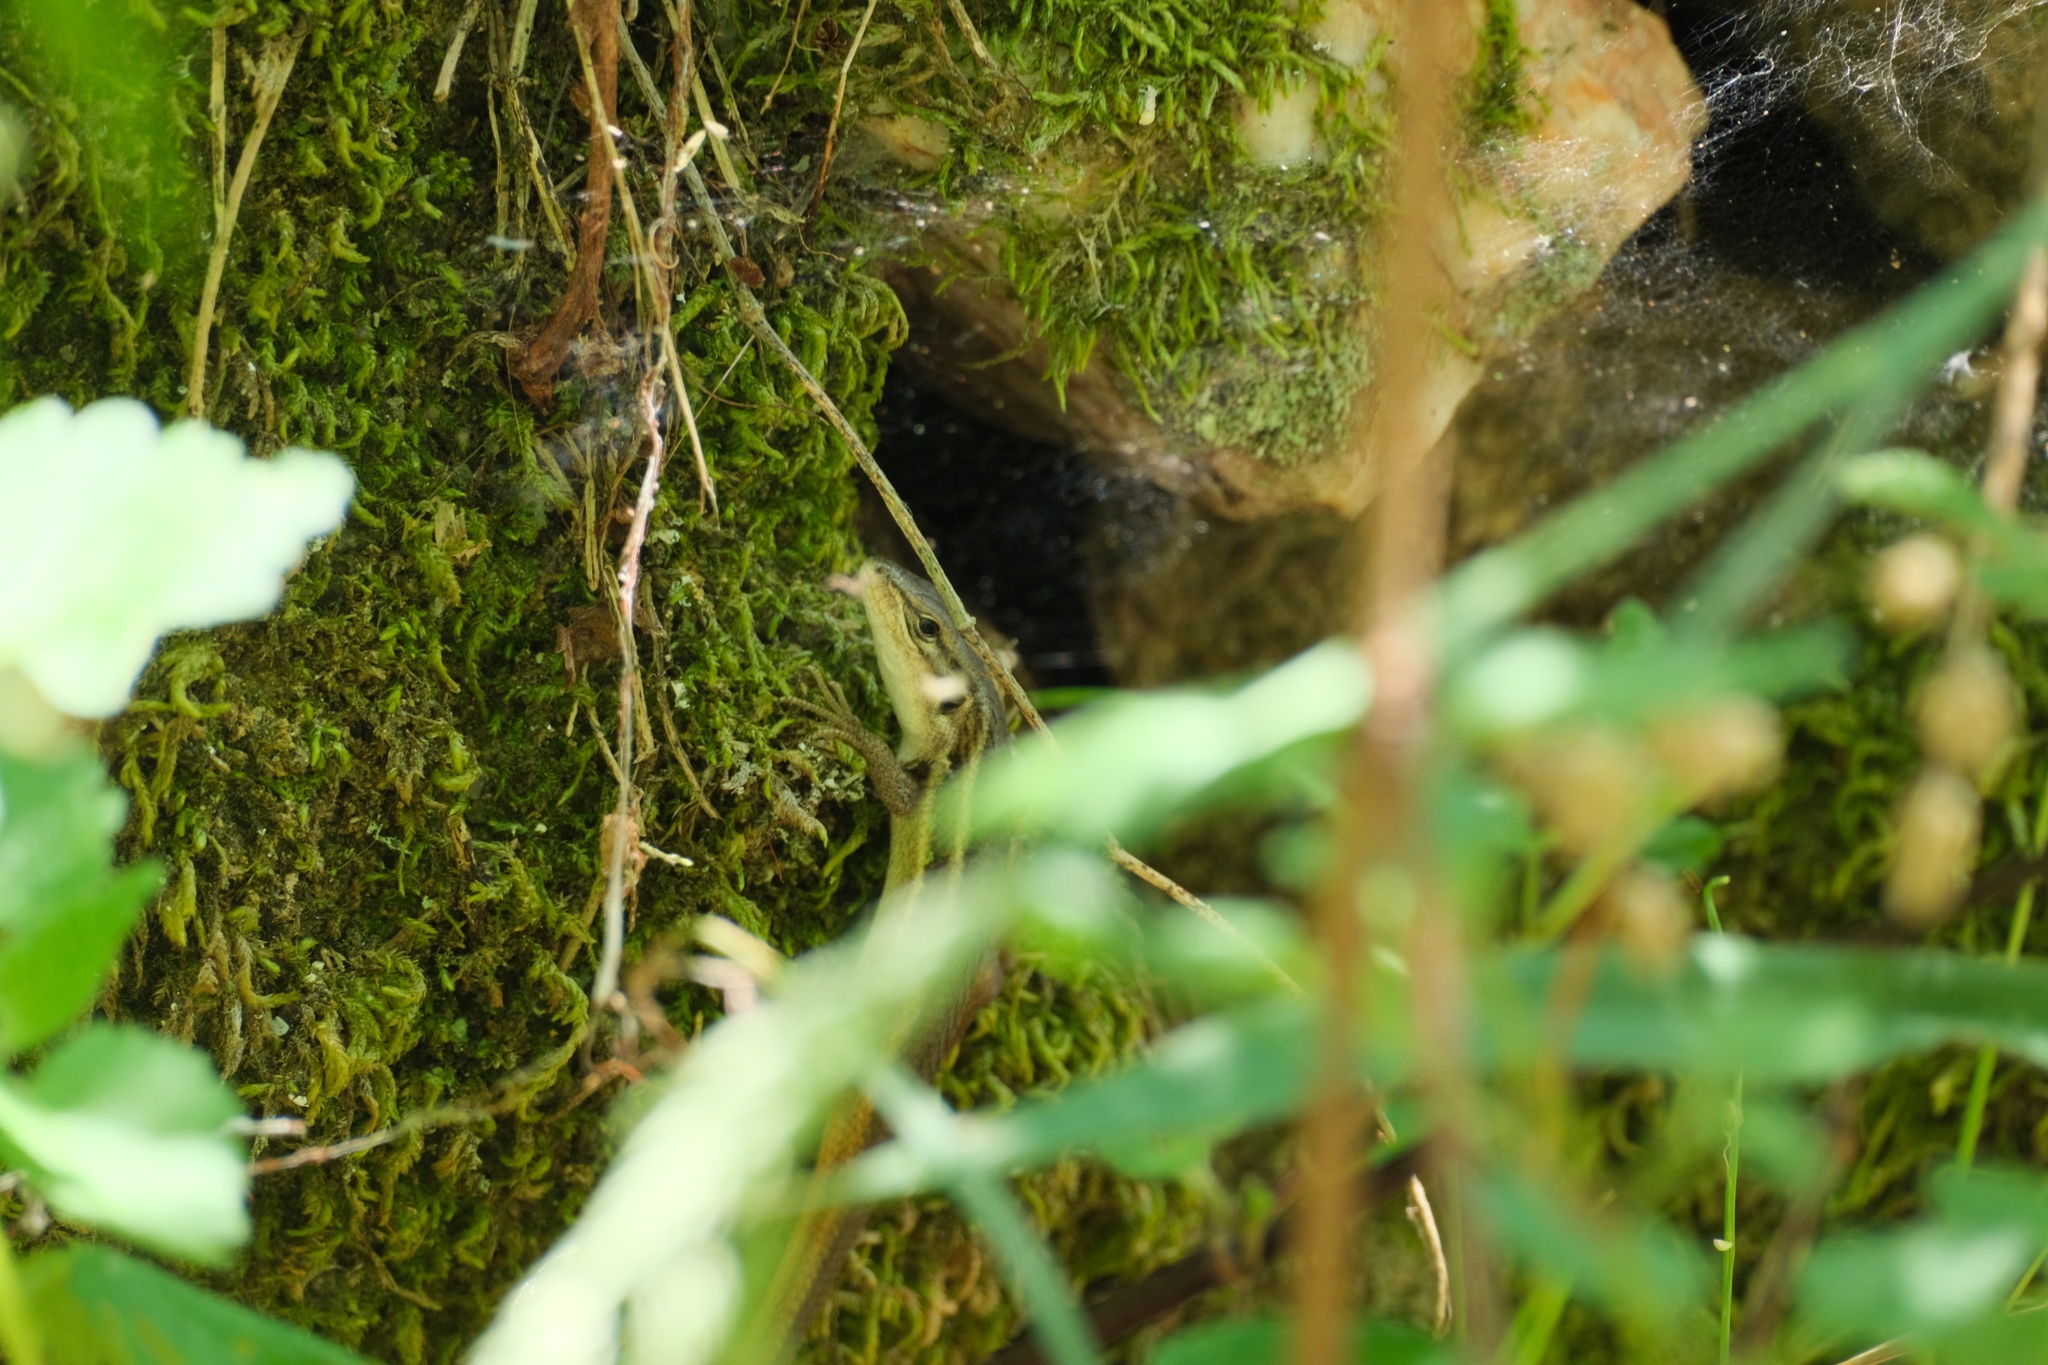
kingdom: Animalia
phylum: Chordata
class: Squamata
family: Lacertidae
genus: Psammodromus
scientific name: Psammodromus algirus
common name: Algerian psammodromus
